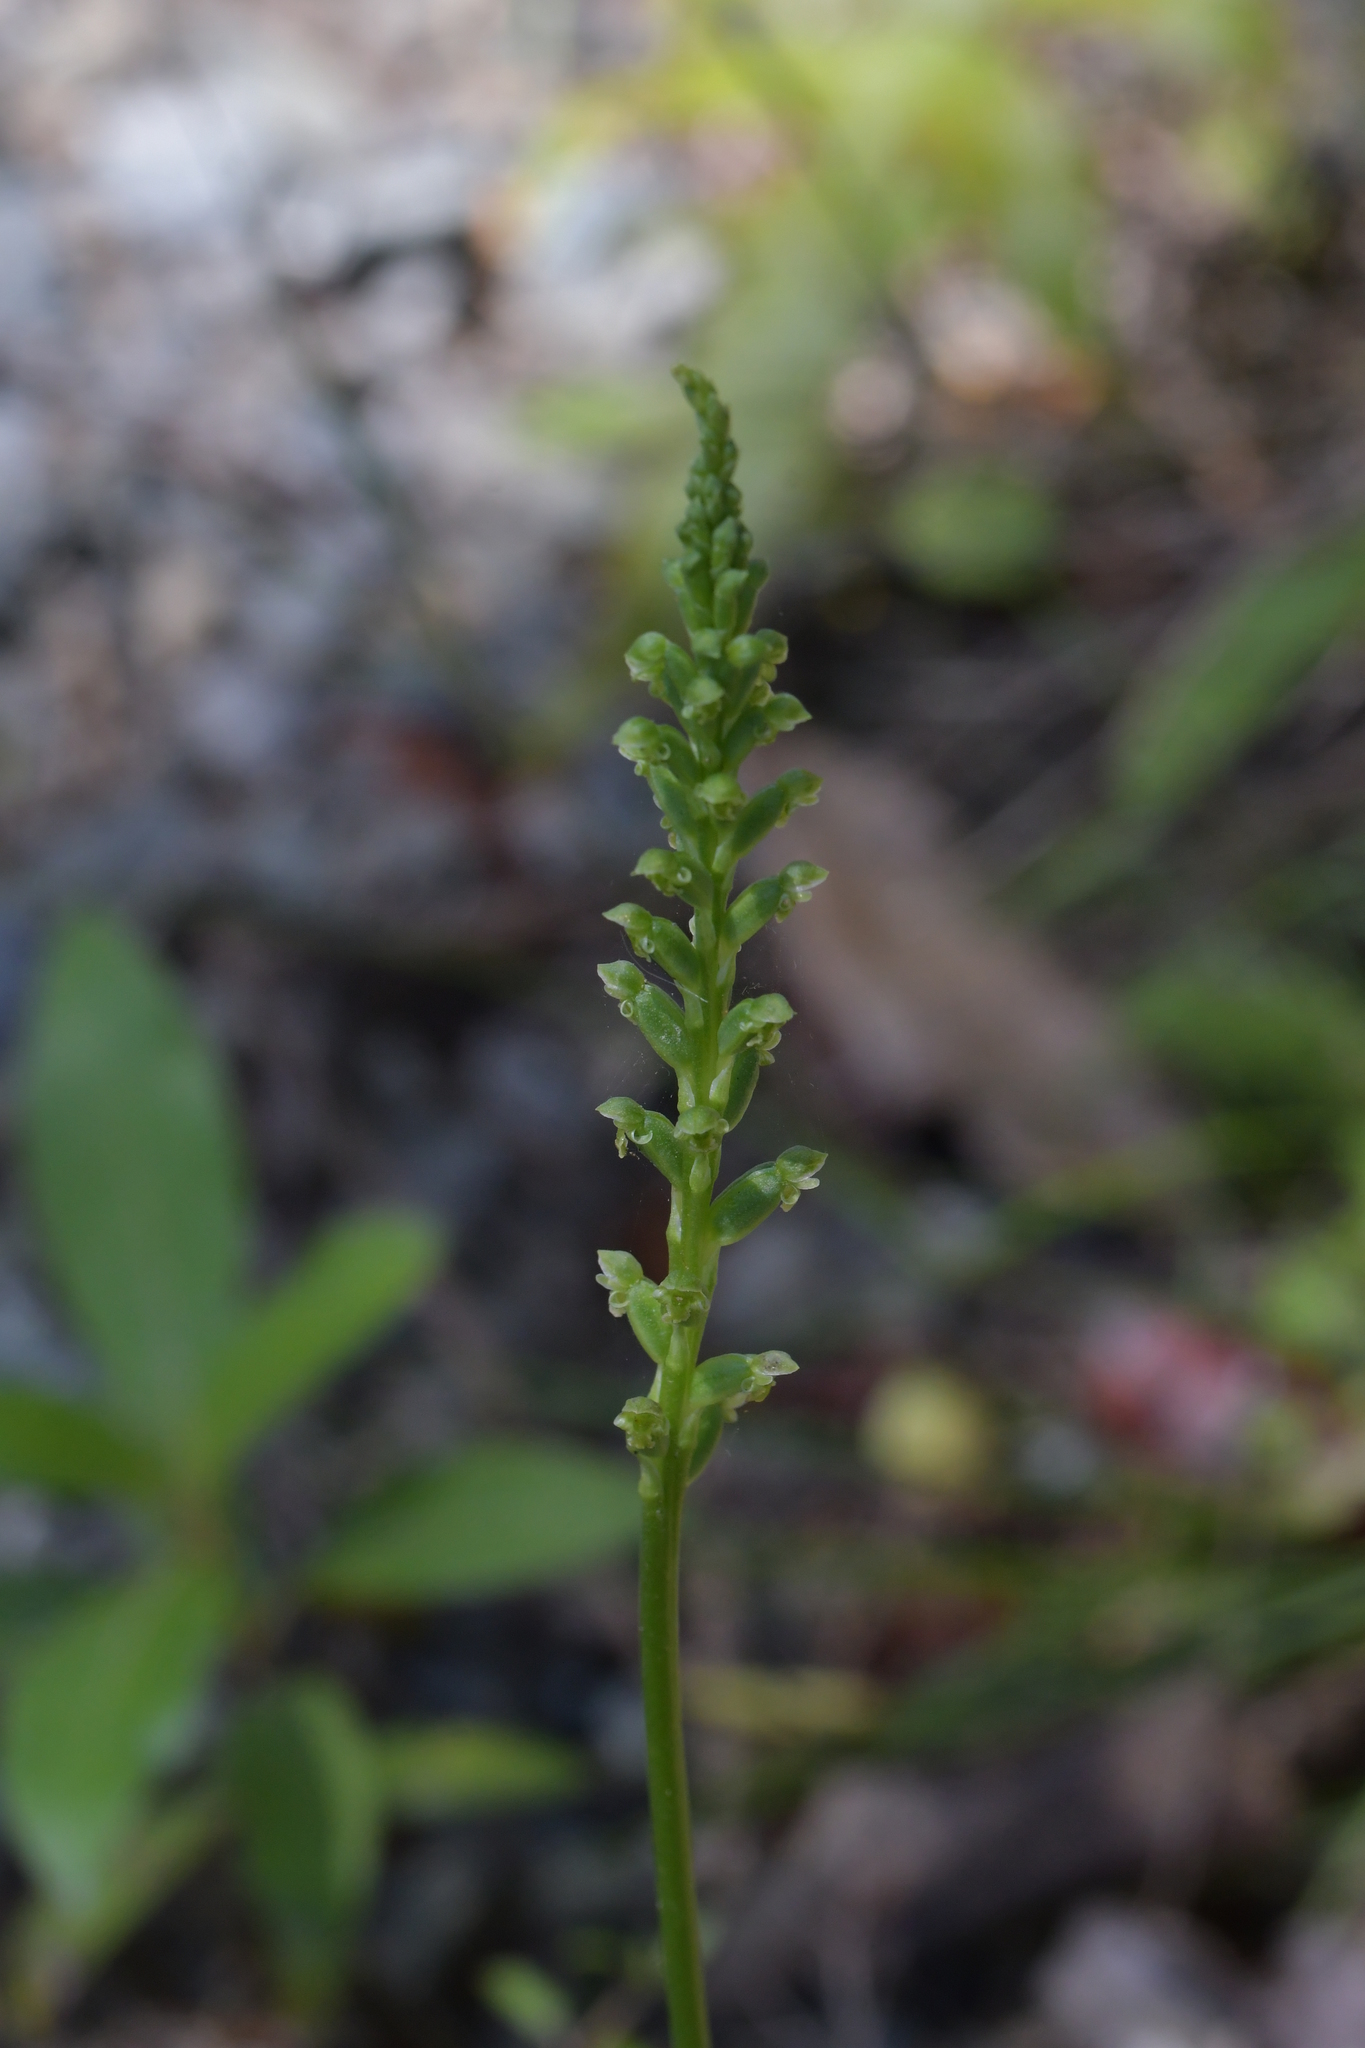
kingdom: Plantae
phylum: Tracheophyta
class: Liliopsida
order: Asparagales
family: Orchidaceae
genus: Microtis
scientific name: Microtis unifolia
